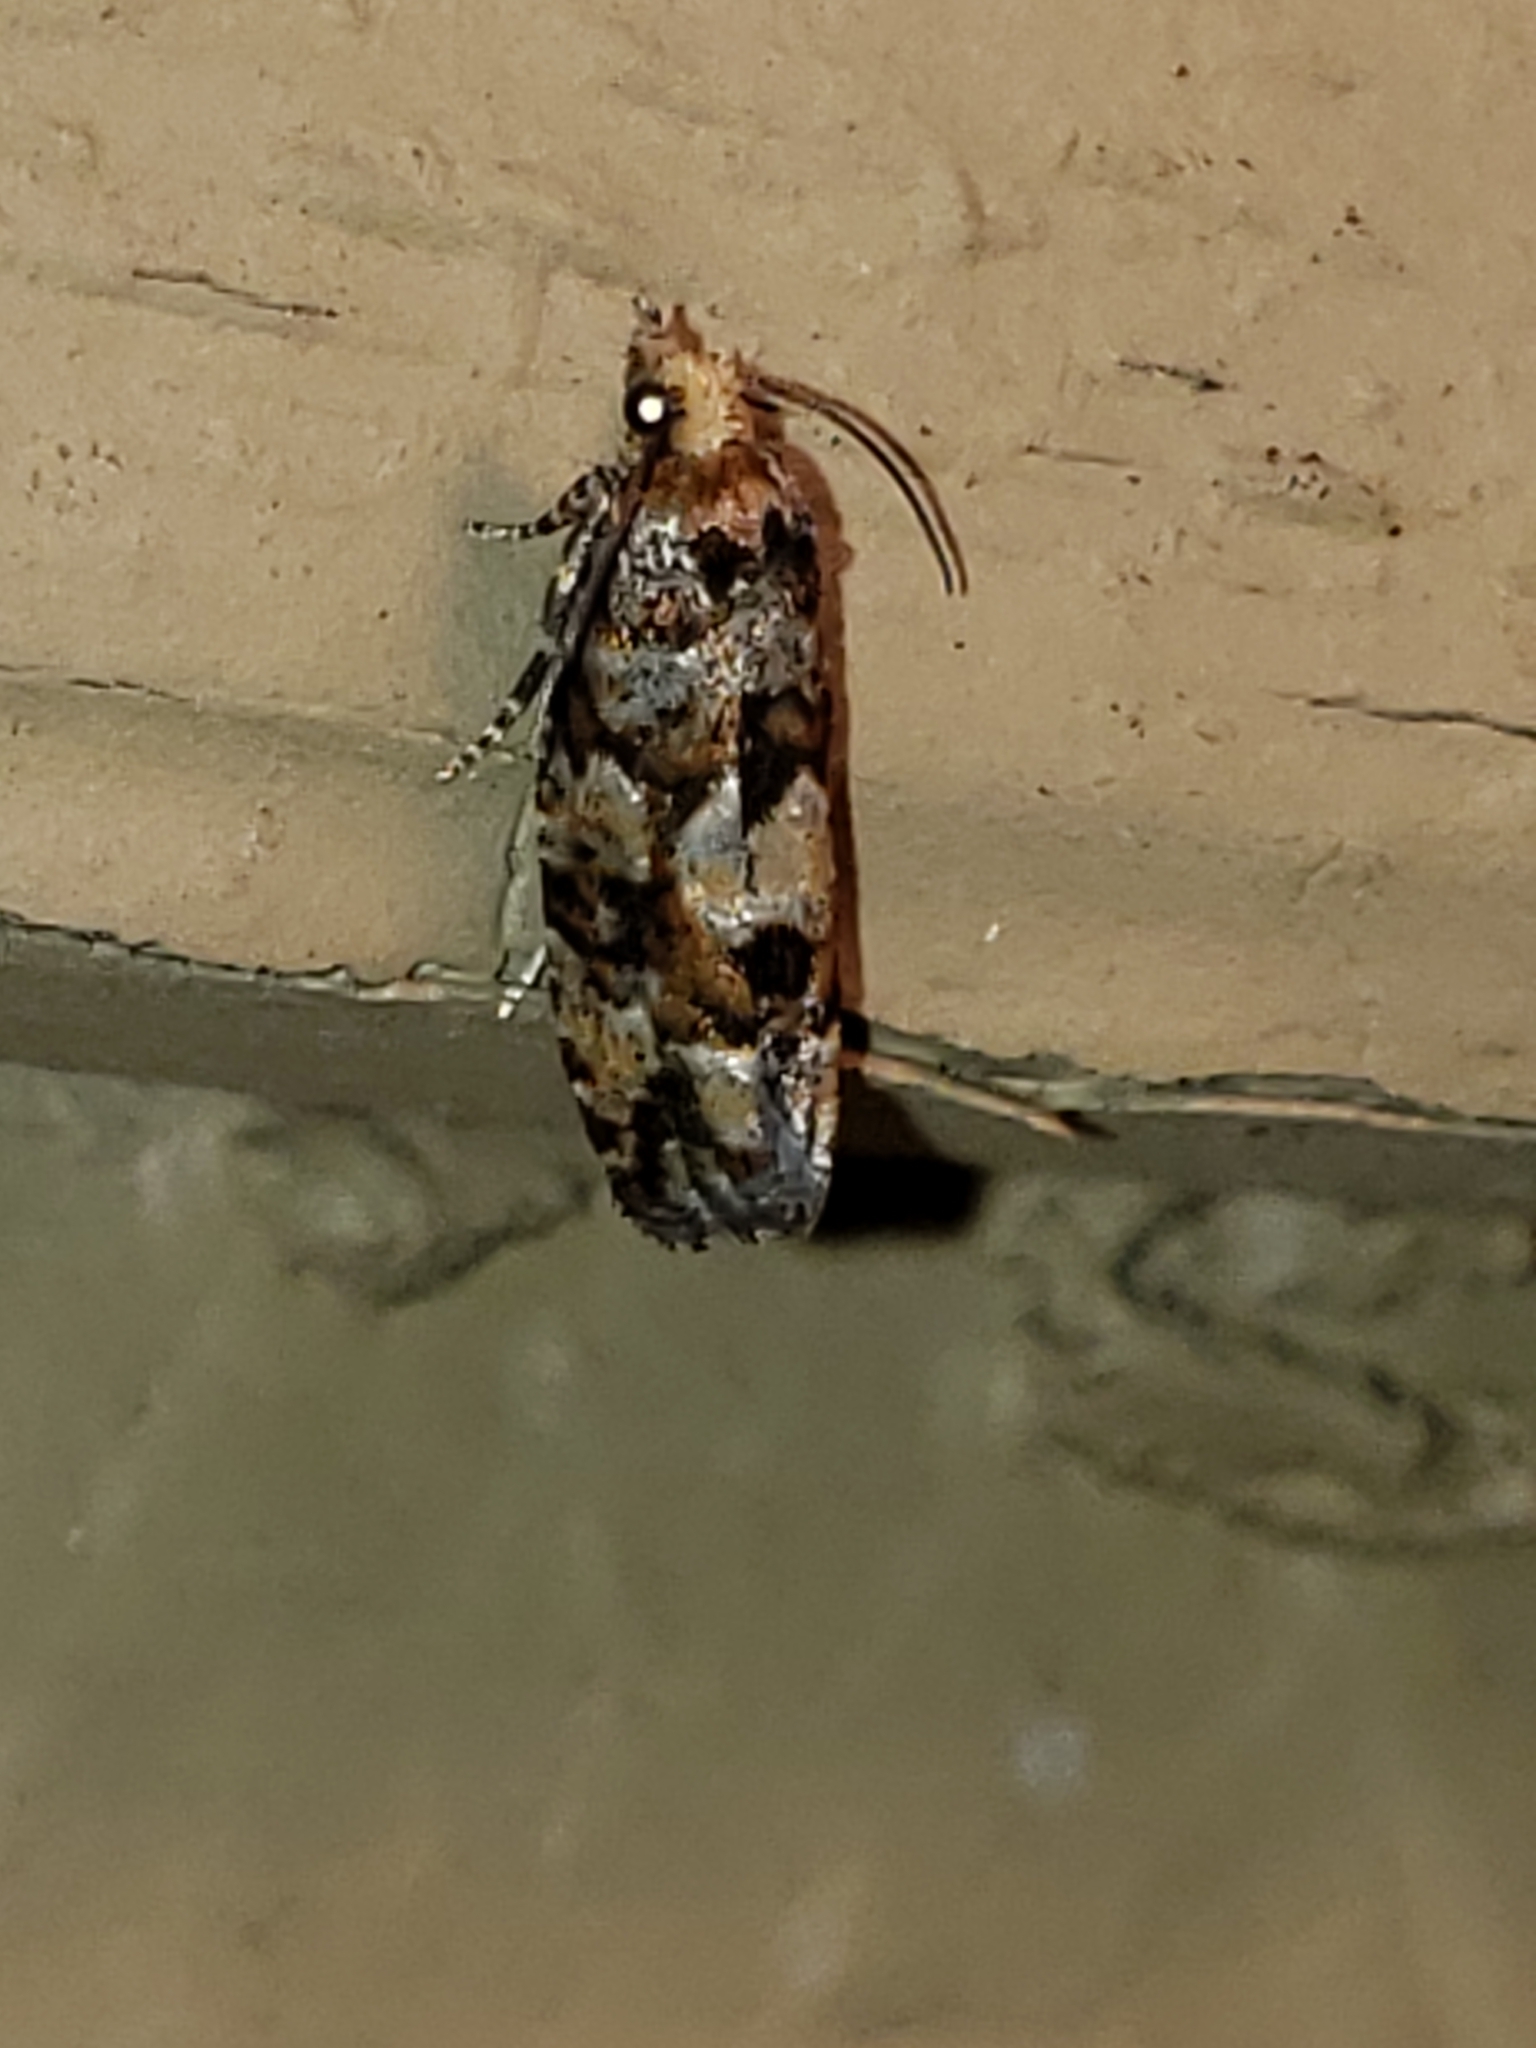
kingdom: Animalia
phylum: Arthropoda
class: Insecta
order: Lepidoptera
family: Tortricidae
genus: Eucopina
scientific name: Eucopina tocullionana
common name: White pinecone borer moth
